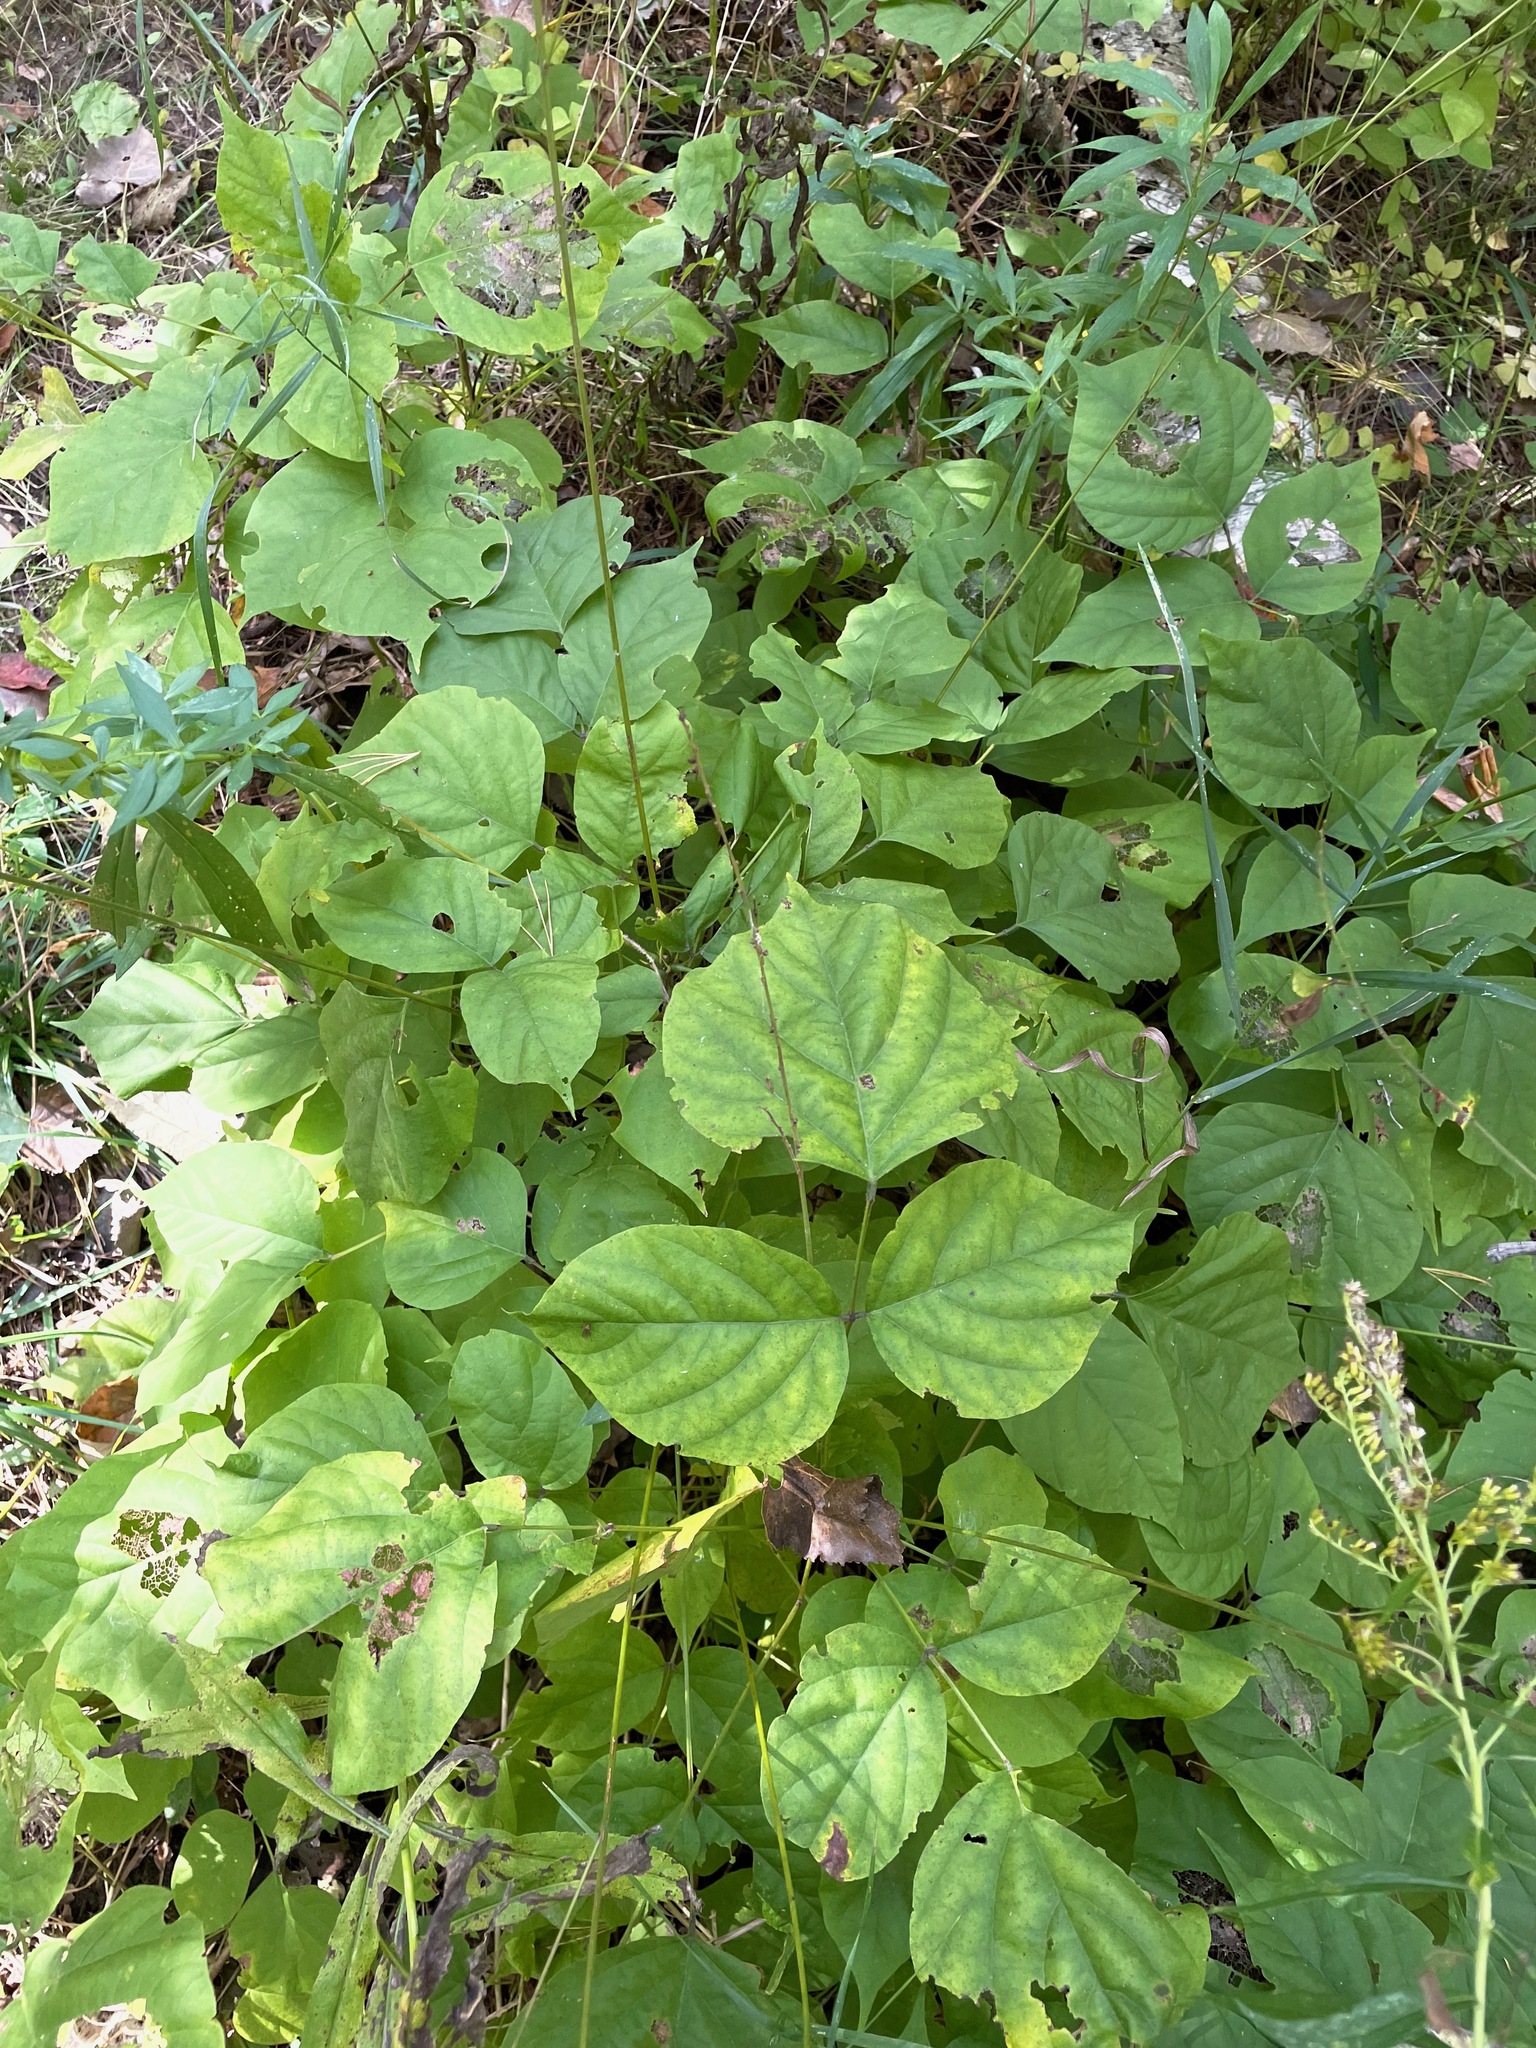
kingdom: Plantae
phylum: Tracheophyta
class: Magnoliopsida
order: Fabales
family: Fabaceae
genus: Hylodesmum
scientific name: Hylodesmum glutinosum
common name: Clustered-leaved tick-trefoil
